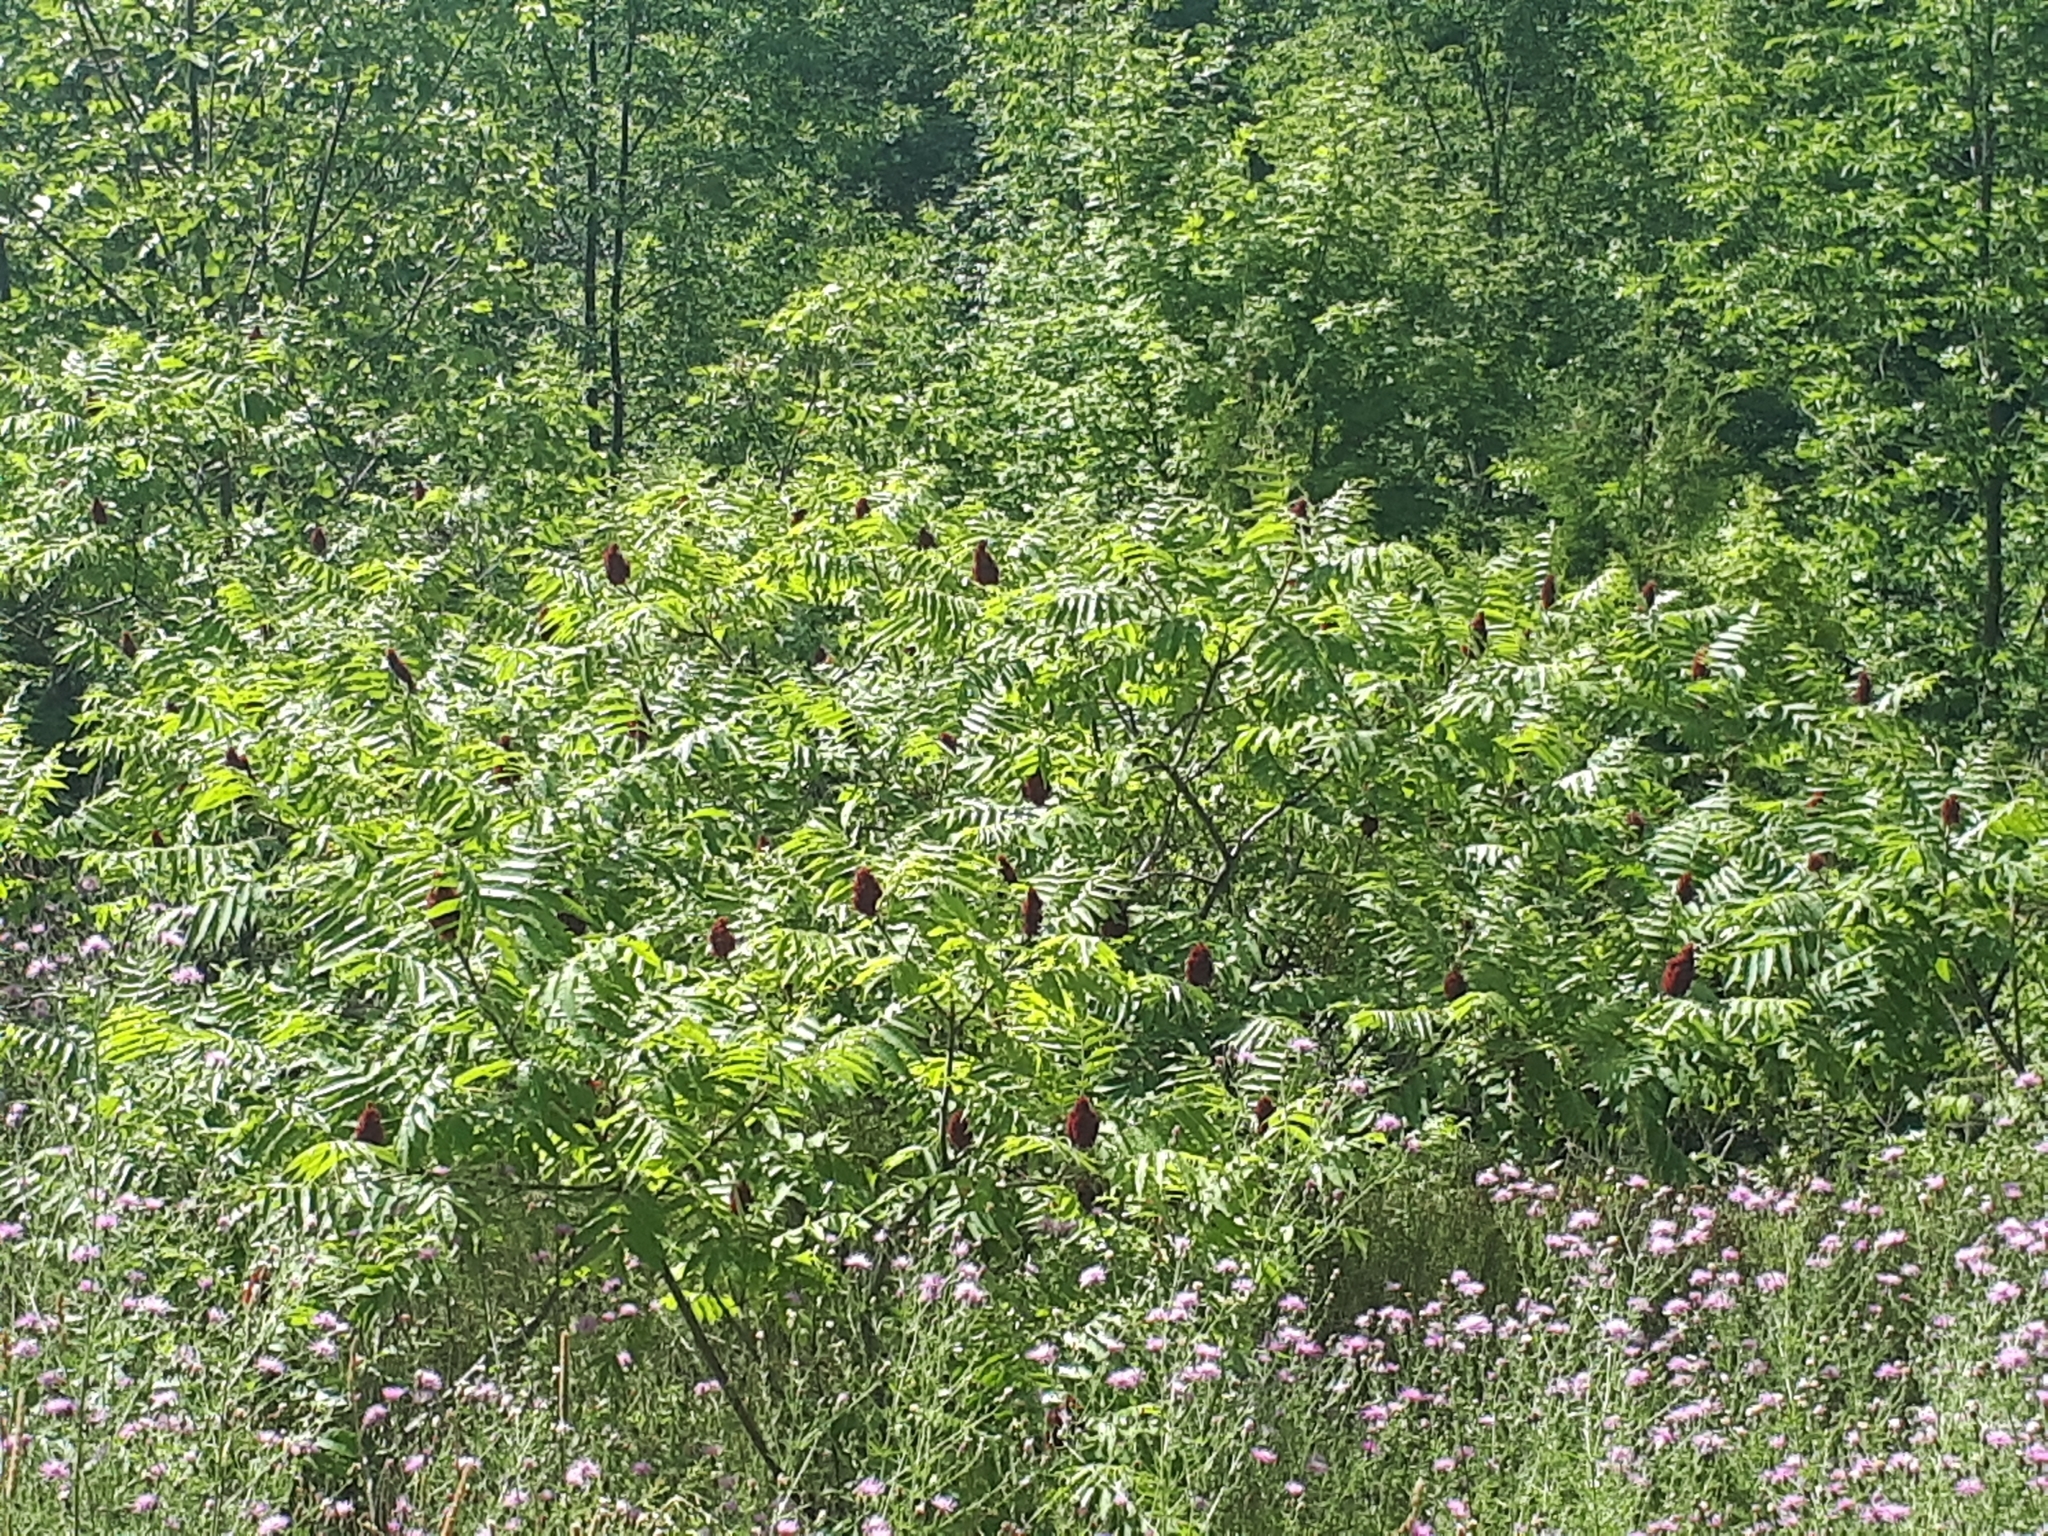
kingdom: Plantae
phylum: Tracheophyta
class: Magnoliopsida
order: Sapindales
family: Anacardiaceae
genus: Rhus
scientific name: Rhus typhina
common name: Staghorn sumac
